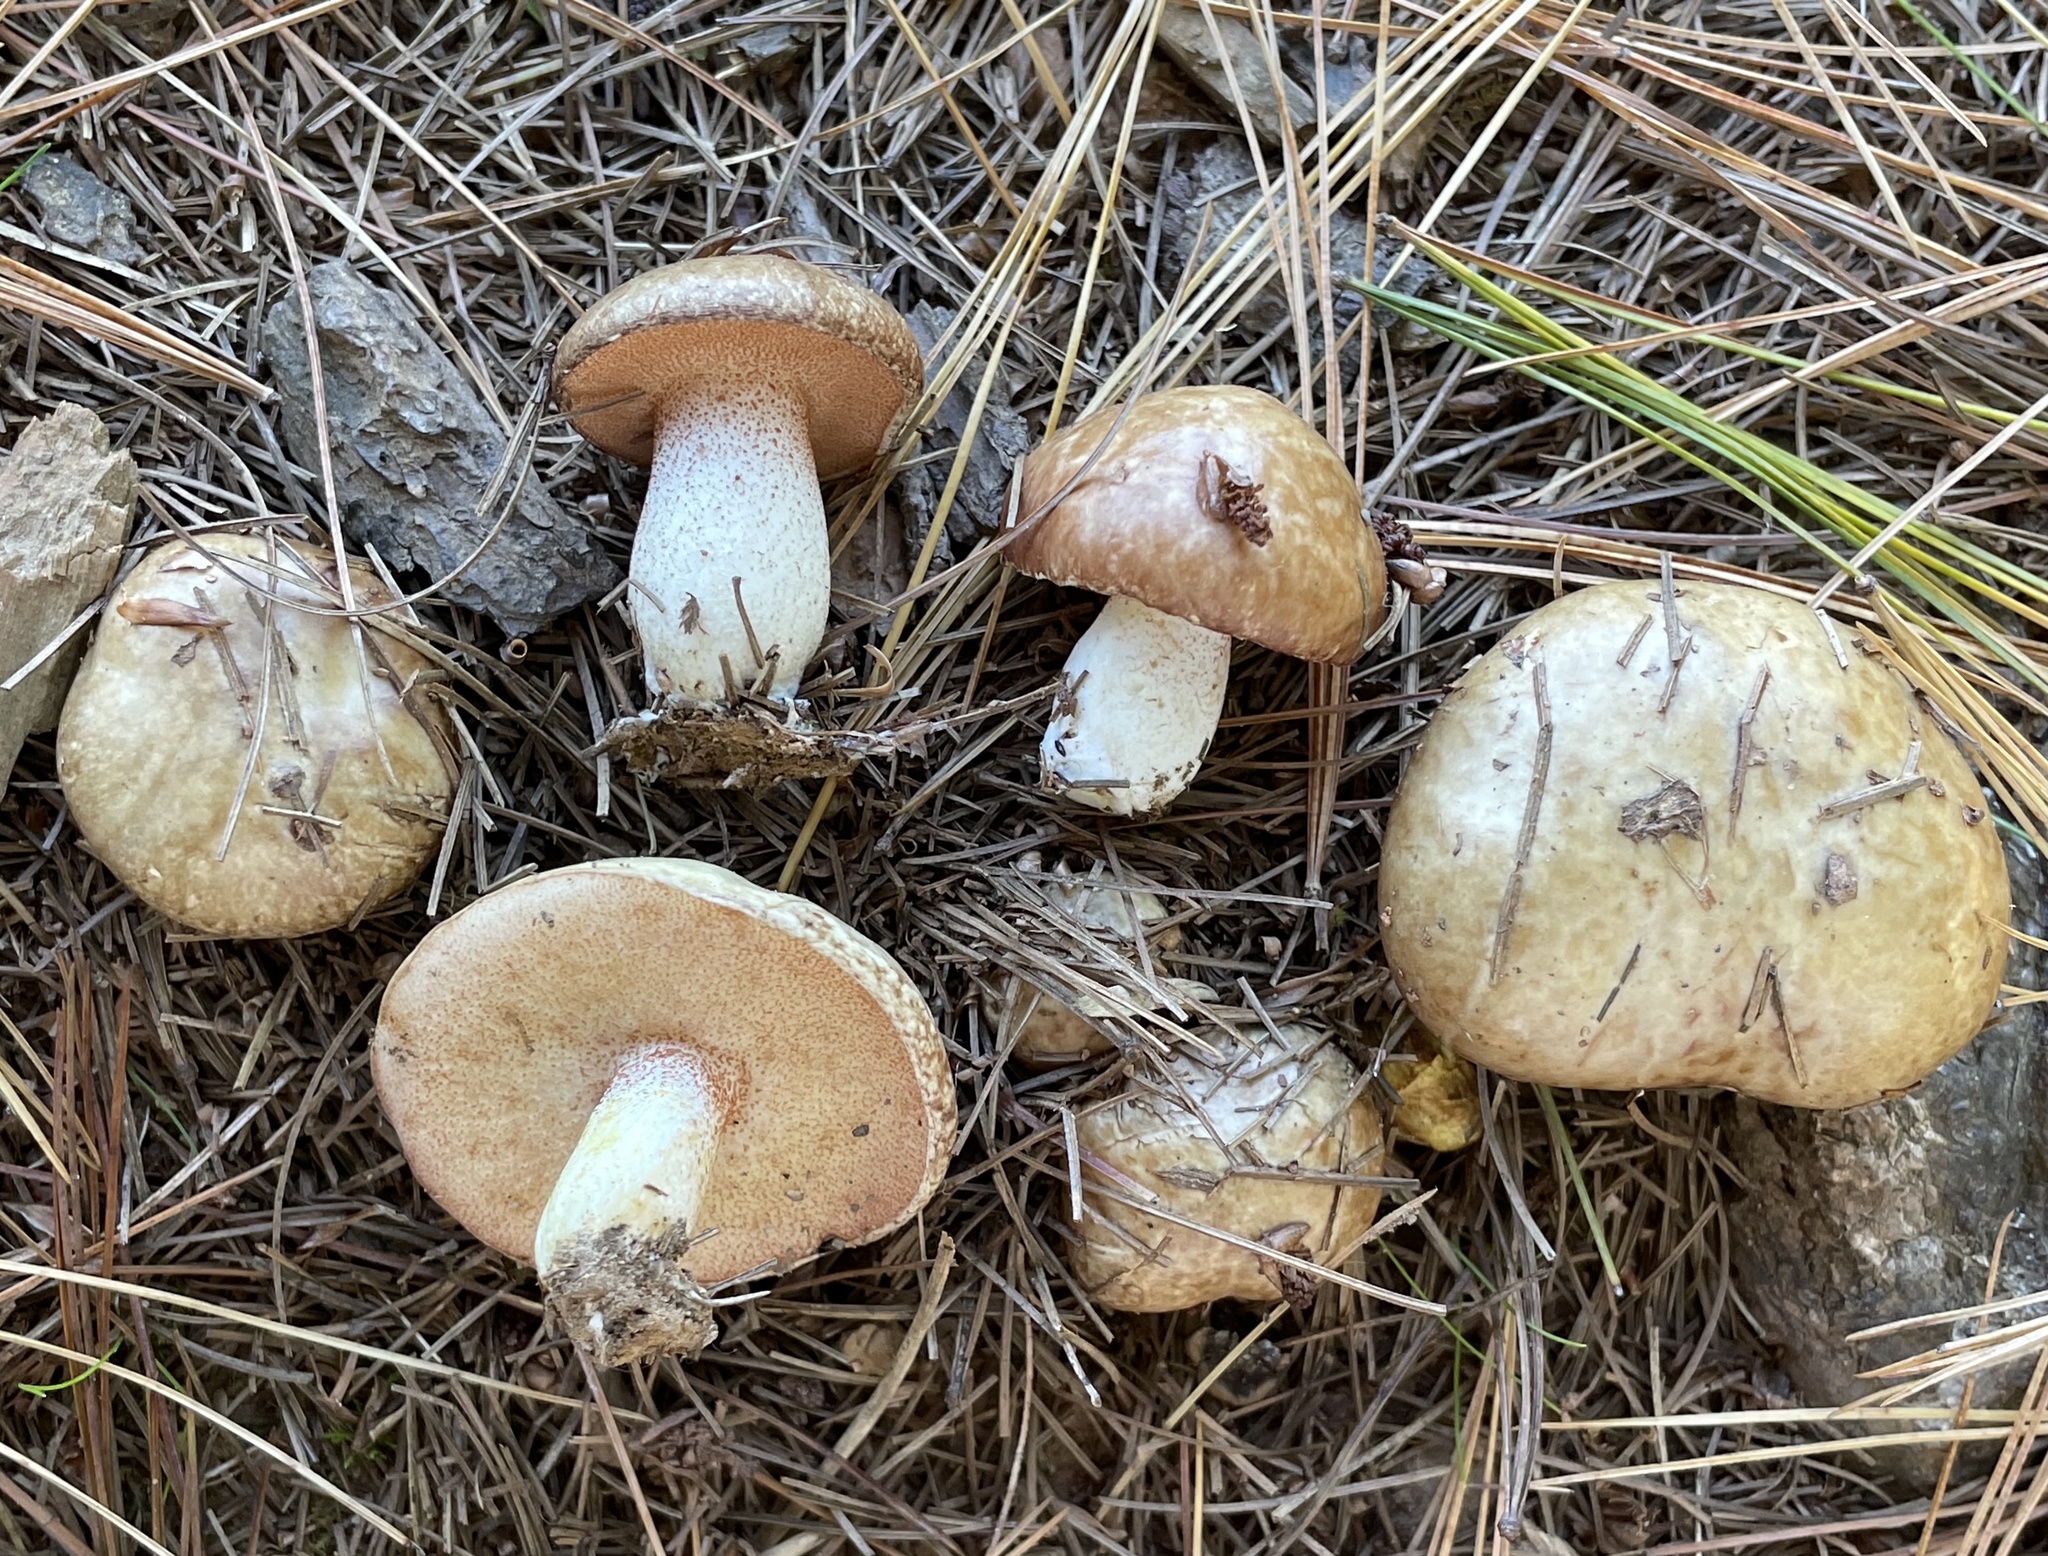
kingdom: Fungi
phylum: Basidiomycota
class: Agaricomycetes
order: Boletales
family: Suillaceae
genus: Fuscoboletinus
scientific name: Fuscoboletinus weaverae
